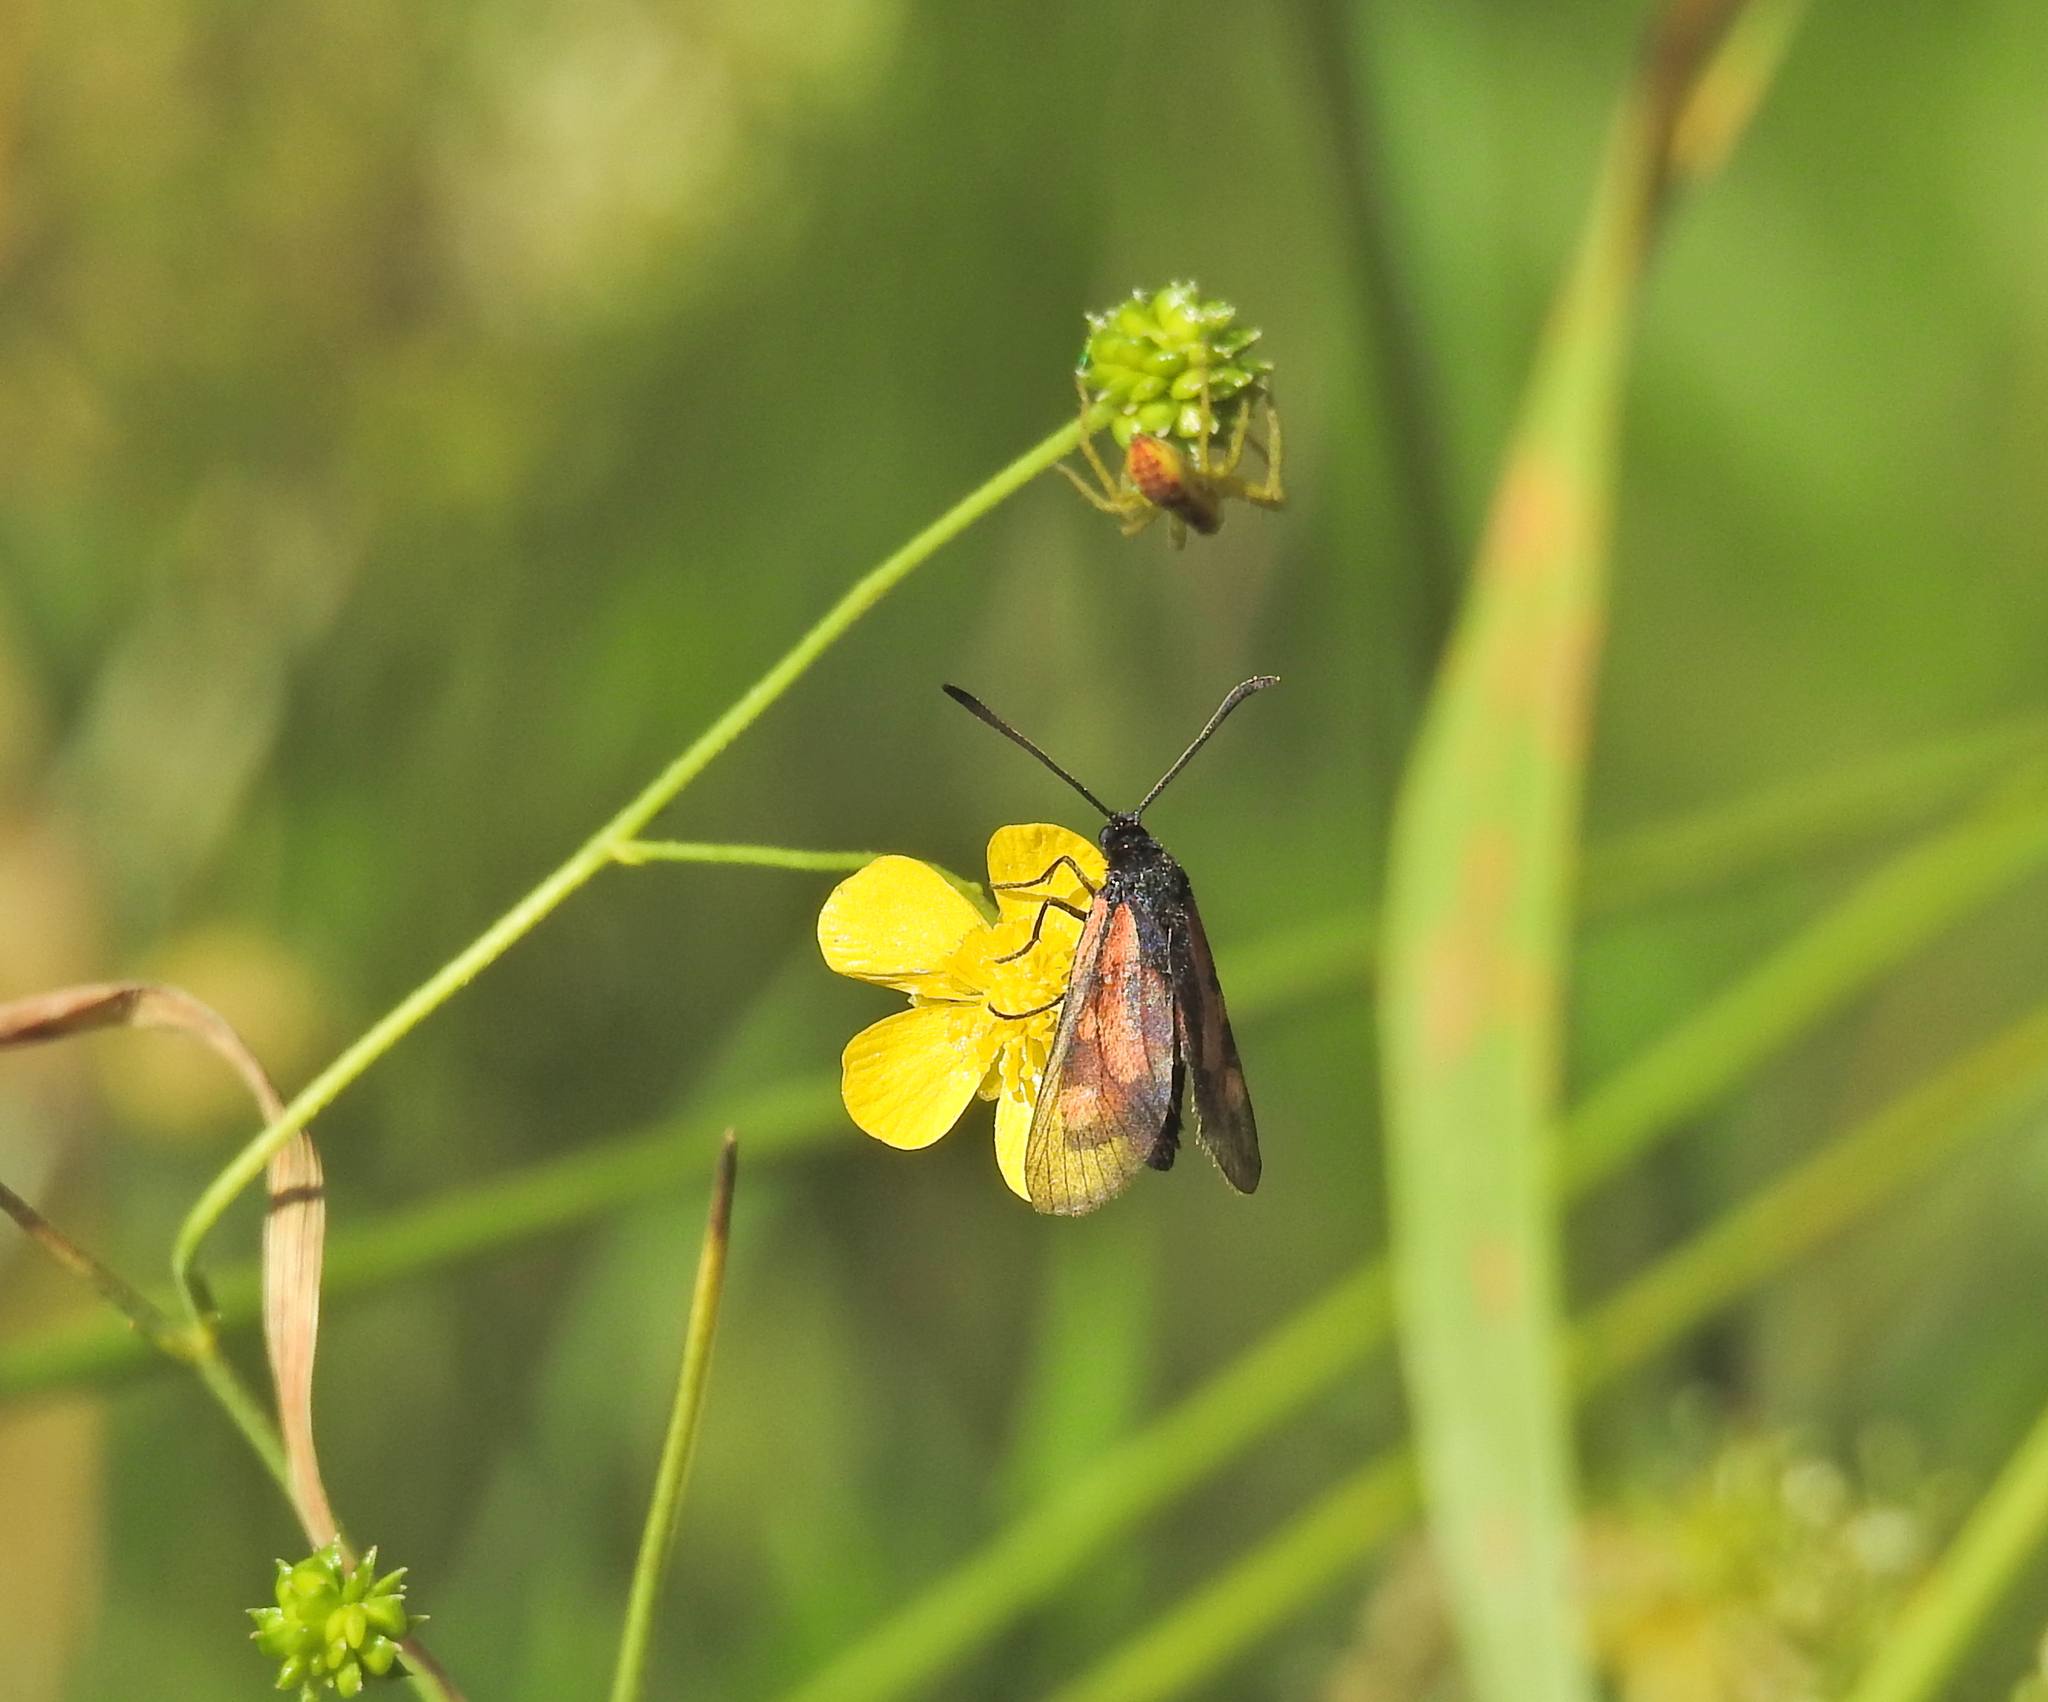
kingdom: Animalia
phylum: Arthropoda
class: Arachnida
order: Araneae
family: Pisauridae
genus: Dolomedes
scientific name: Dolomedes
